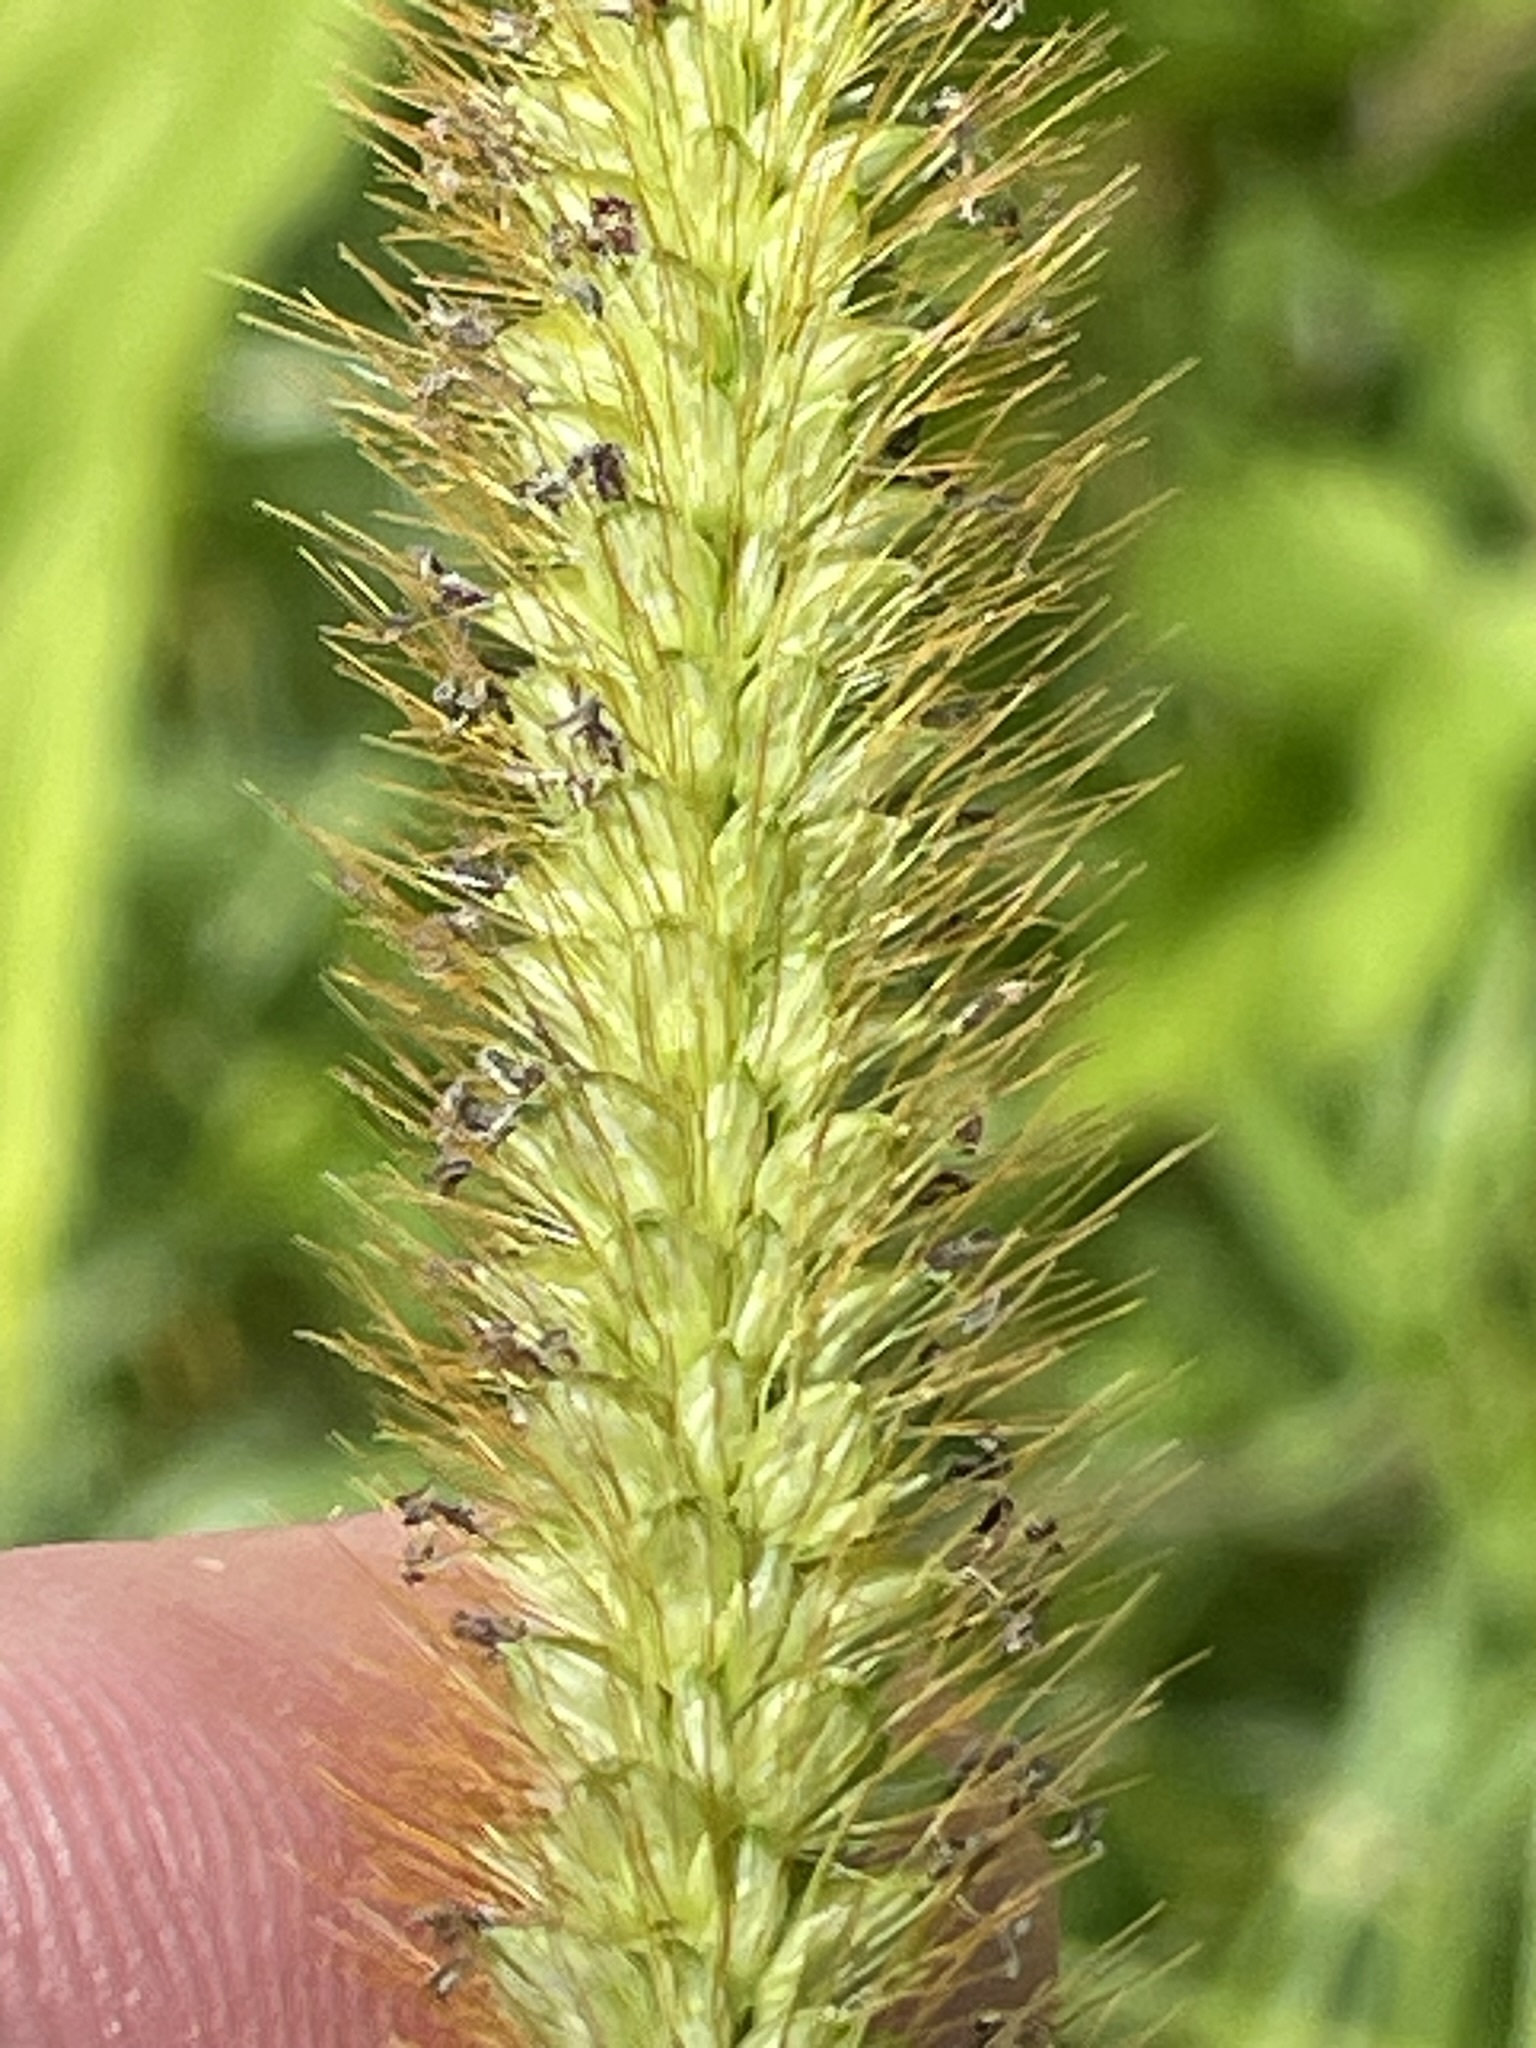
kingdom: Plantae
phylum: Tracheophyta
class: Liliopsida
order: Poales
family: Poaceae
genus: Setaria
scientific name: Setaria pumila
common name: Yellow bristle-grass
